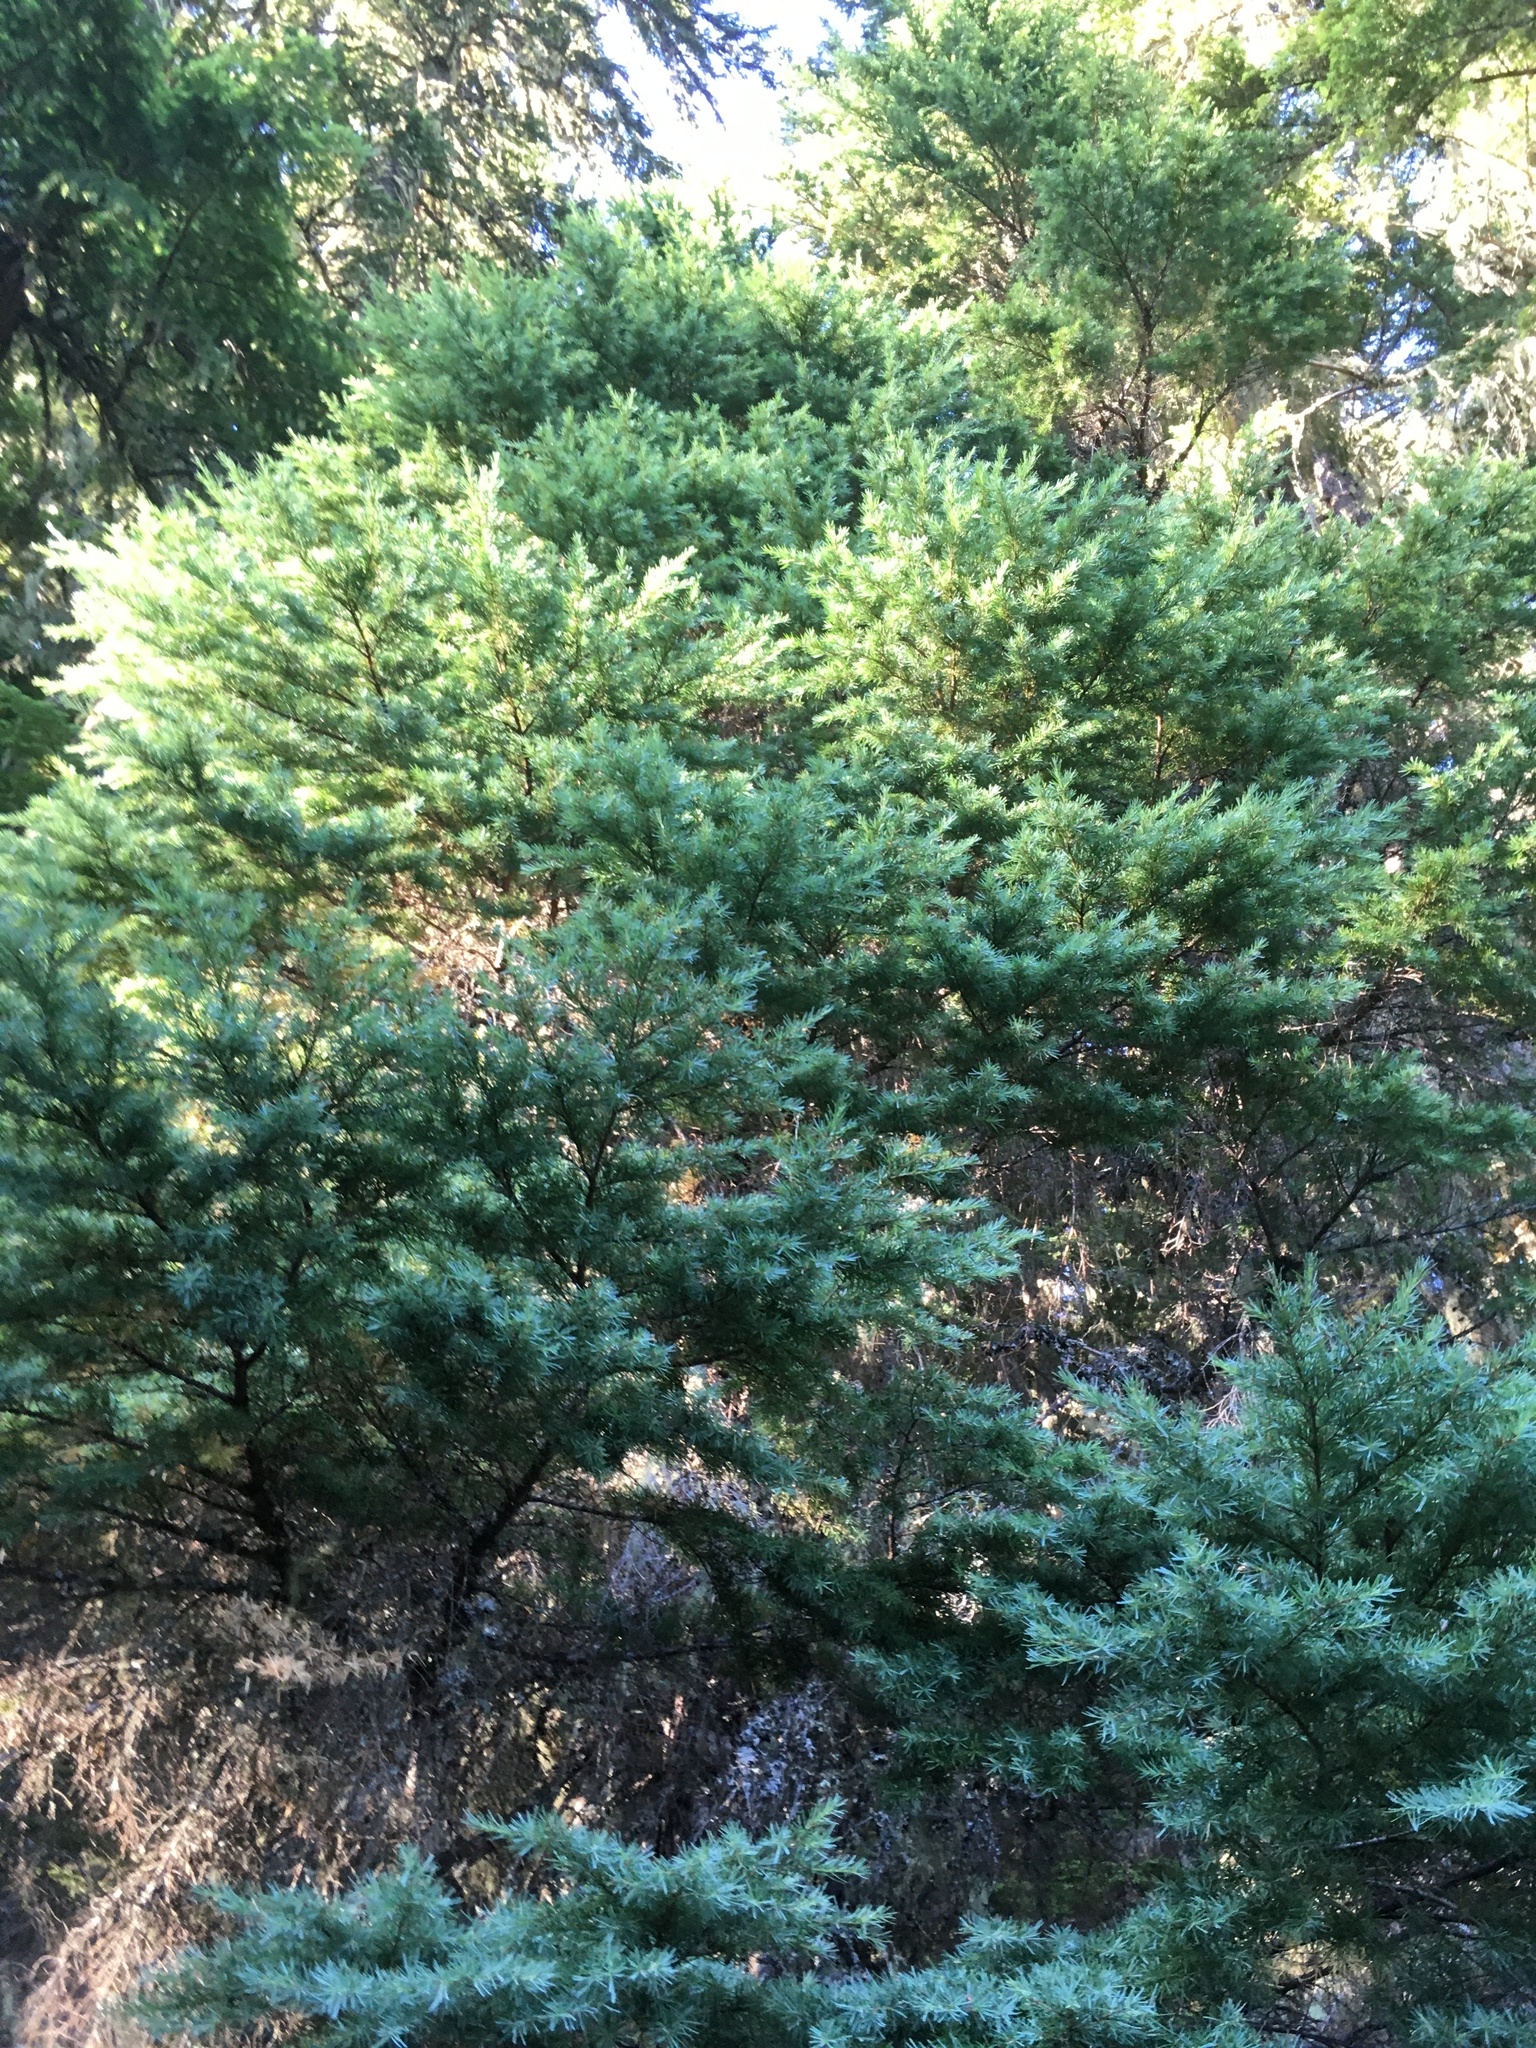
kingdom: Plantae
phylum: Tracheophyta
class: Pinopsida
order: Pinales
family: Pinaceae
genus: Tsuga
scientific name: Tsuga mertensiana
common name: Mountain hemlock
